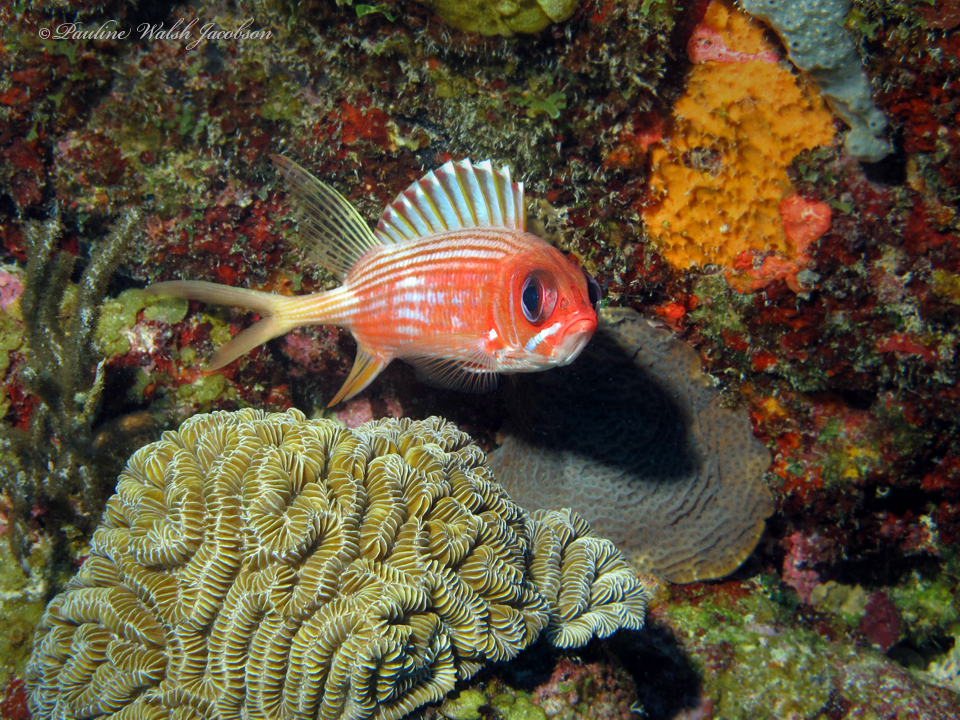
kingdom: Animalia
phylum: Chordata
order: Beryciformes
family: Holocentridae
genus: Holocentrus
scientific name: Holocentrus rufus
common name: Longspine squirrelfish
